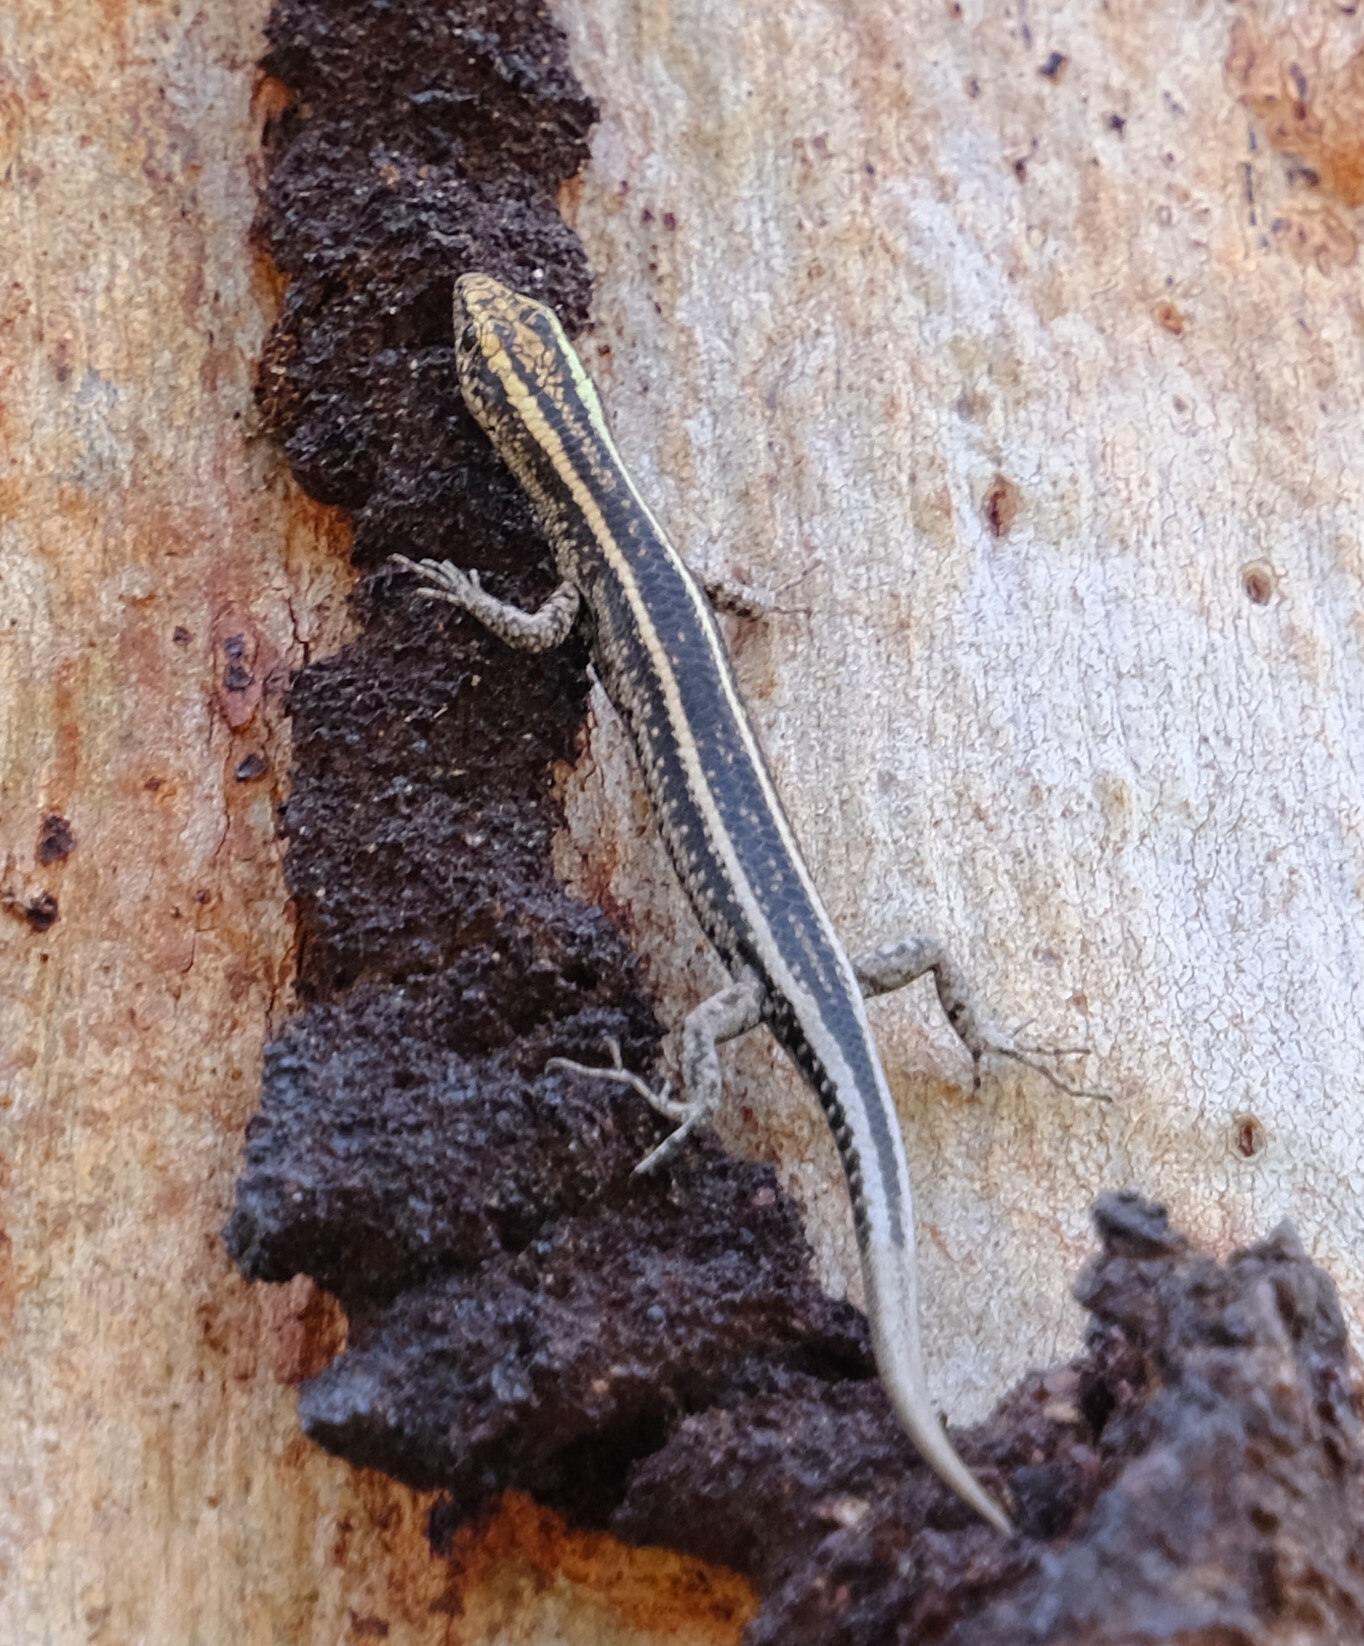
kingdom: Animalia
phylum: Chordata
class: Squamata
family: Scincidae
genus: Cryptoblepharus
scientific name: Cryptoblepharus pulcher
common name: Elegant snake-eyed skink
